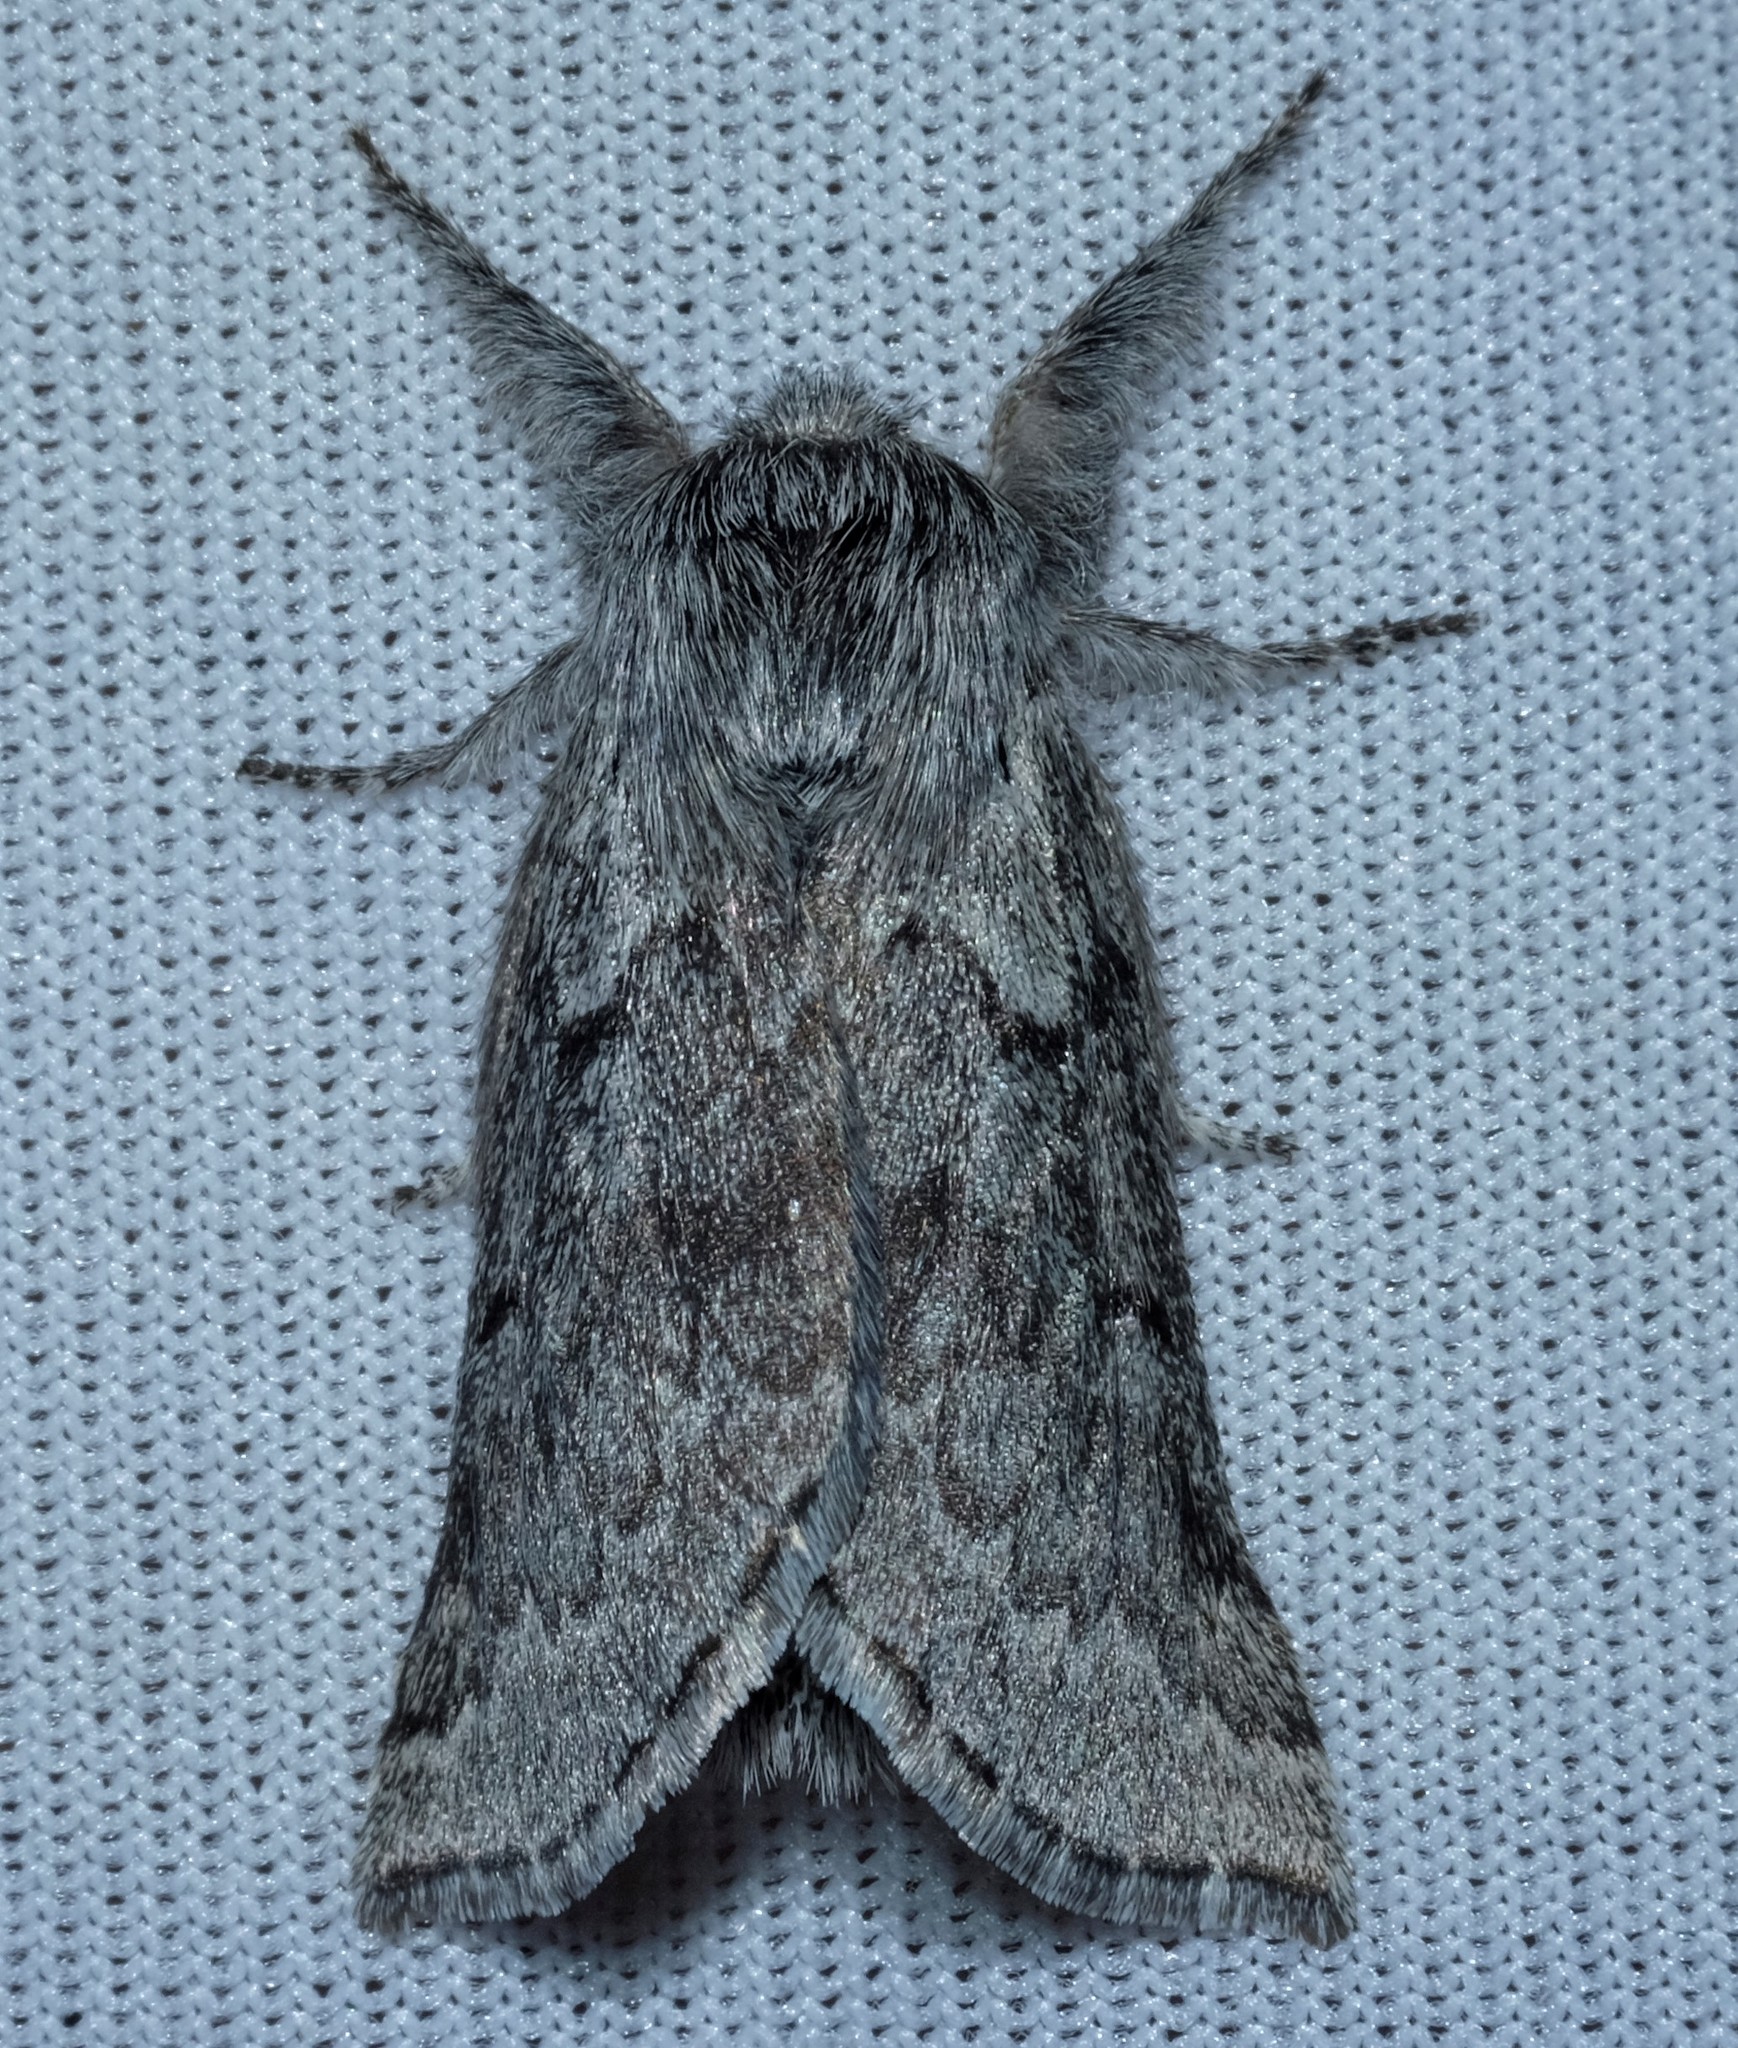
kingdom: Animalia
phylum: Arthropoda
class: Insecta
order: Lepidoptera
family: Anthelidae
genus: Munychryia
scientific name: Munychryia senicula
